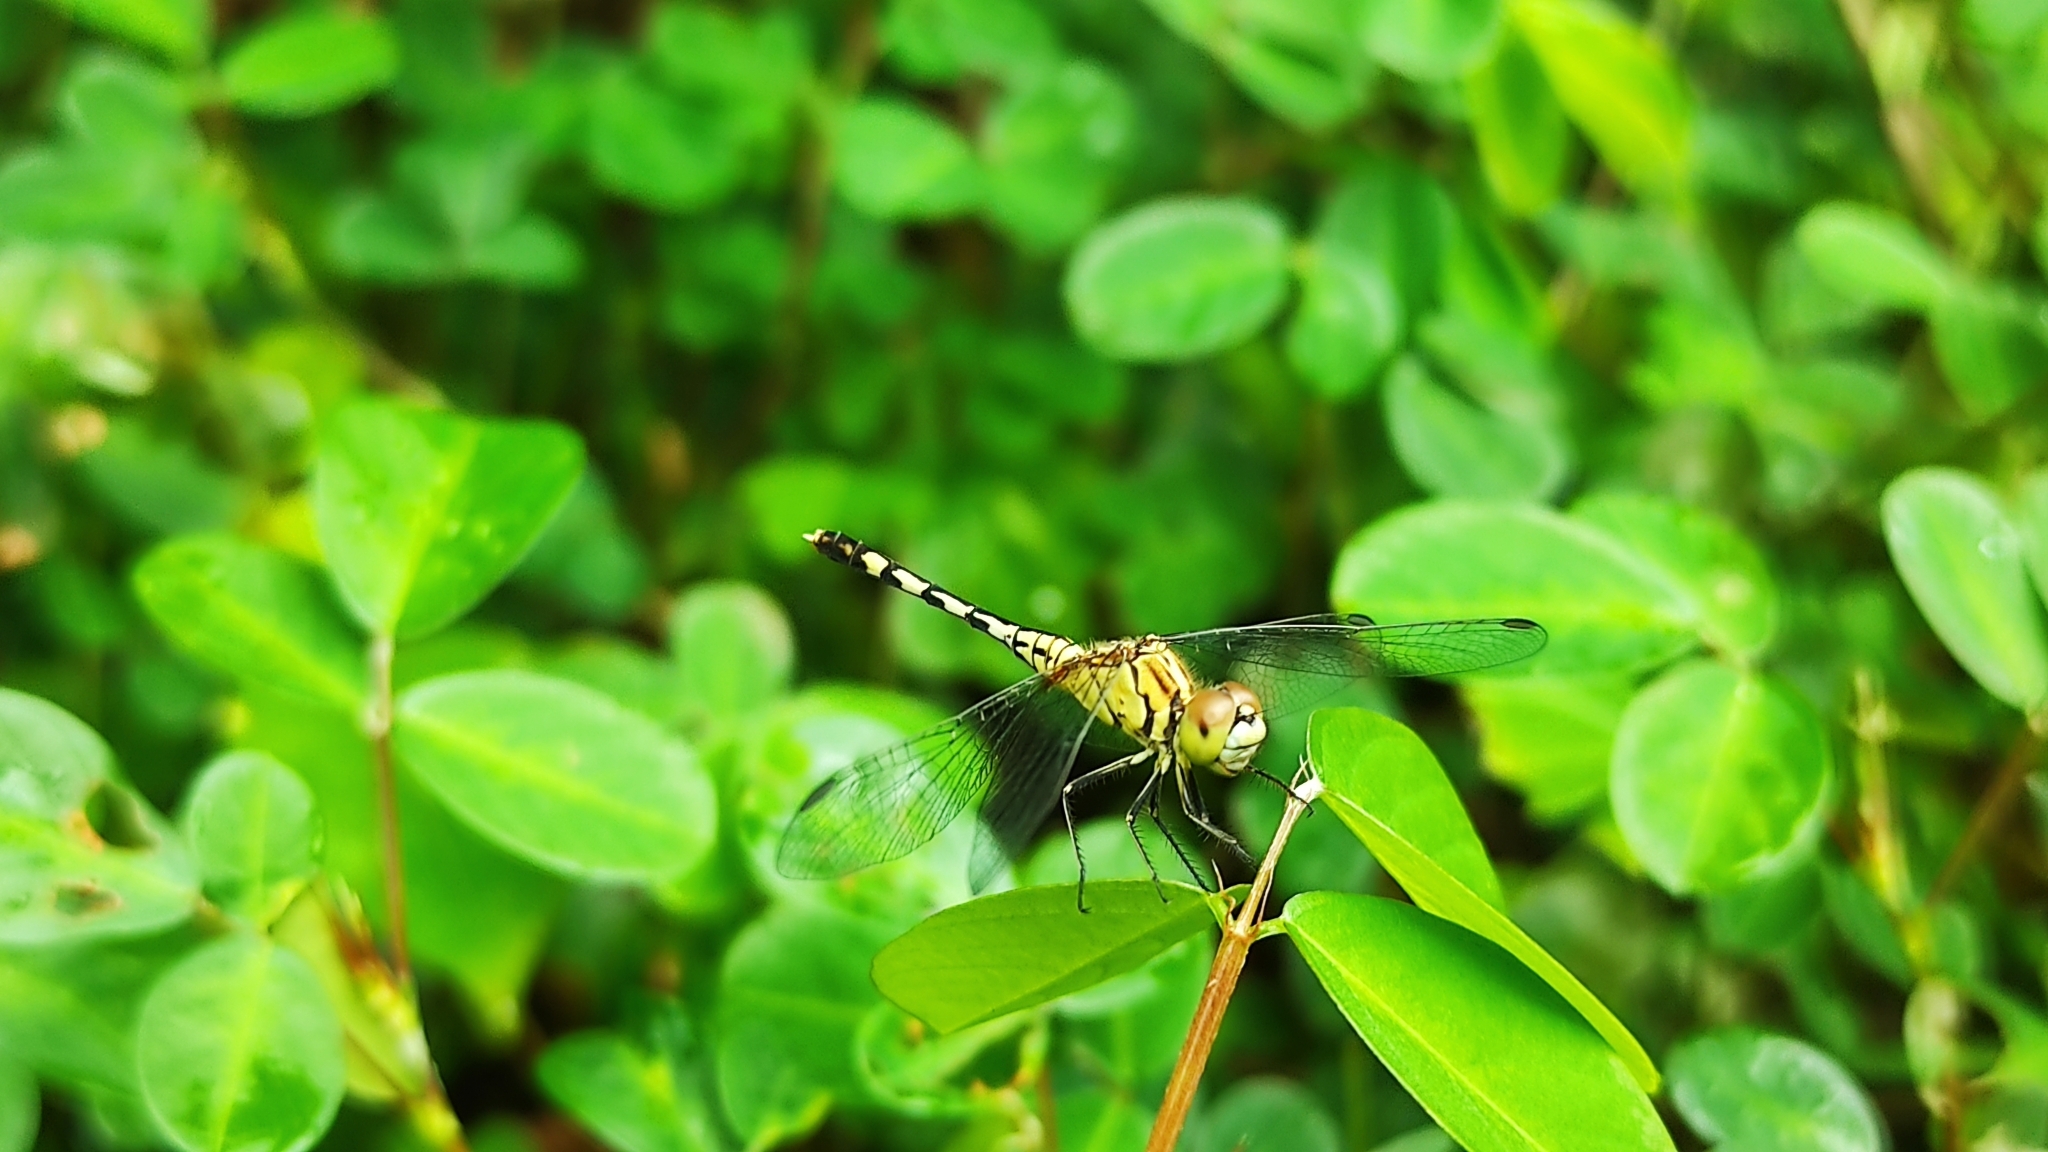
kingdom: Animalia
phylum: Arthropoda
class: Insecta
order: Odonata
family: Libellulidae
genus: Diplacodes
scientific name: Diplacodes trivialis
